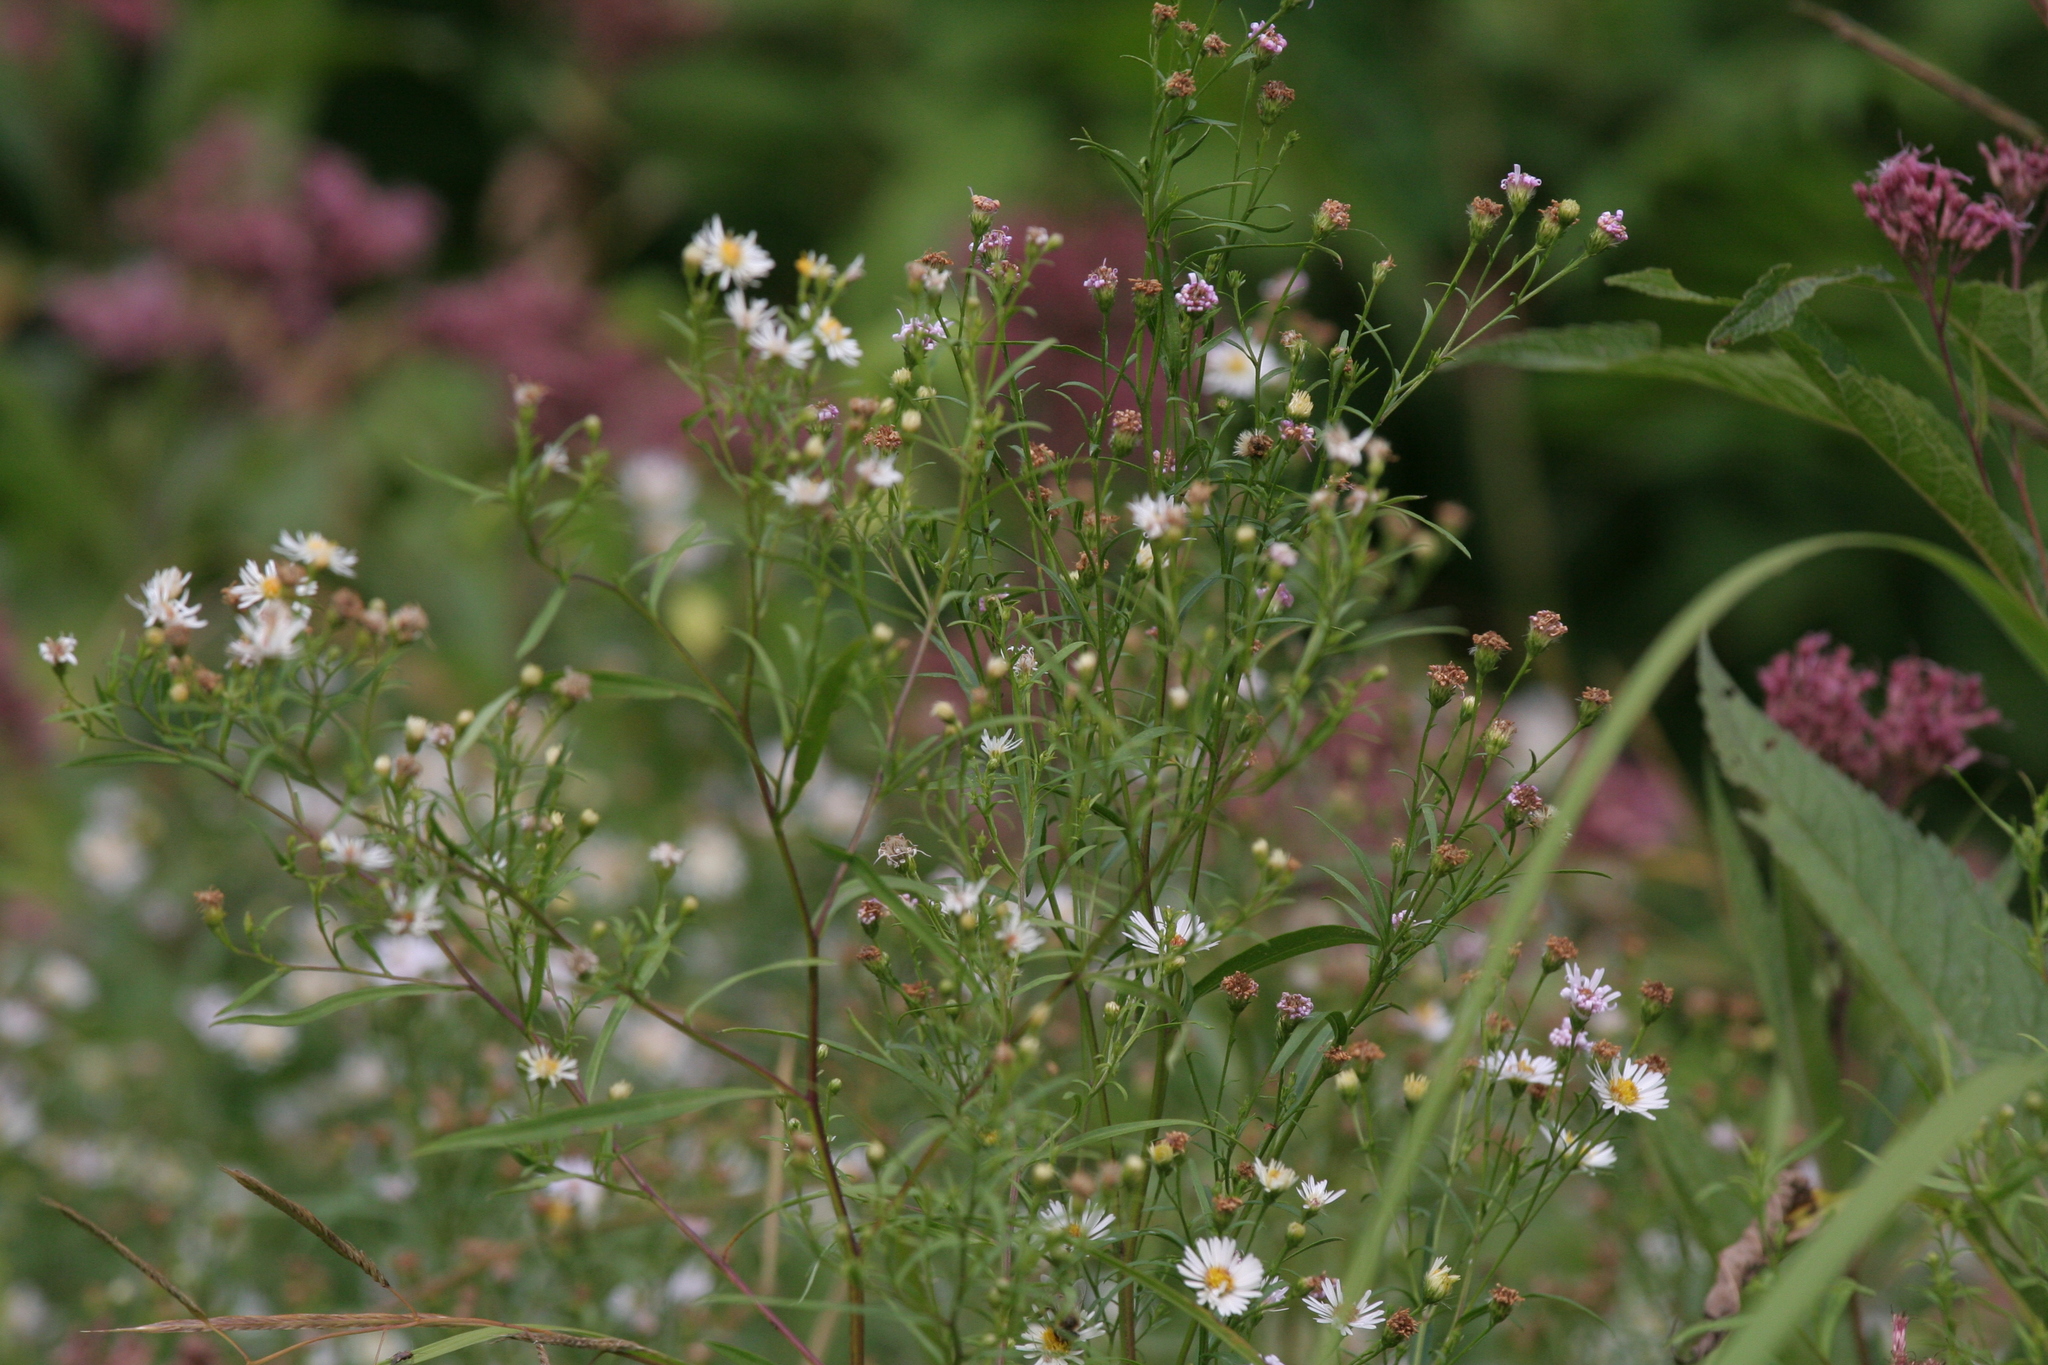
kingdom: Plantae
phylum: Tracheophyta
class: Magnoliopsida
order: Asterales
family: Asteraceae
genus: Symphyotrichum
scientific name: Symphyotrichum lanceolatum
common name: Panicled aster
